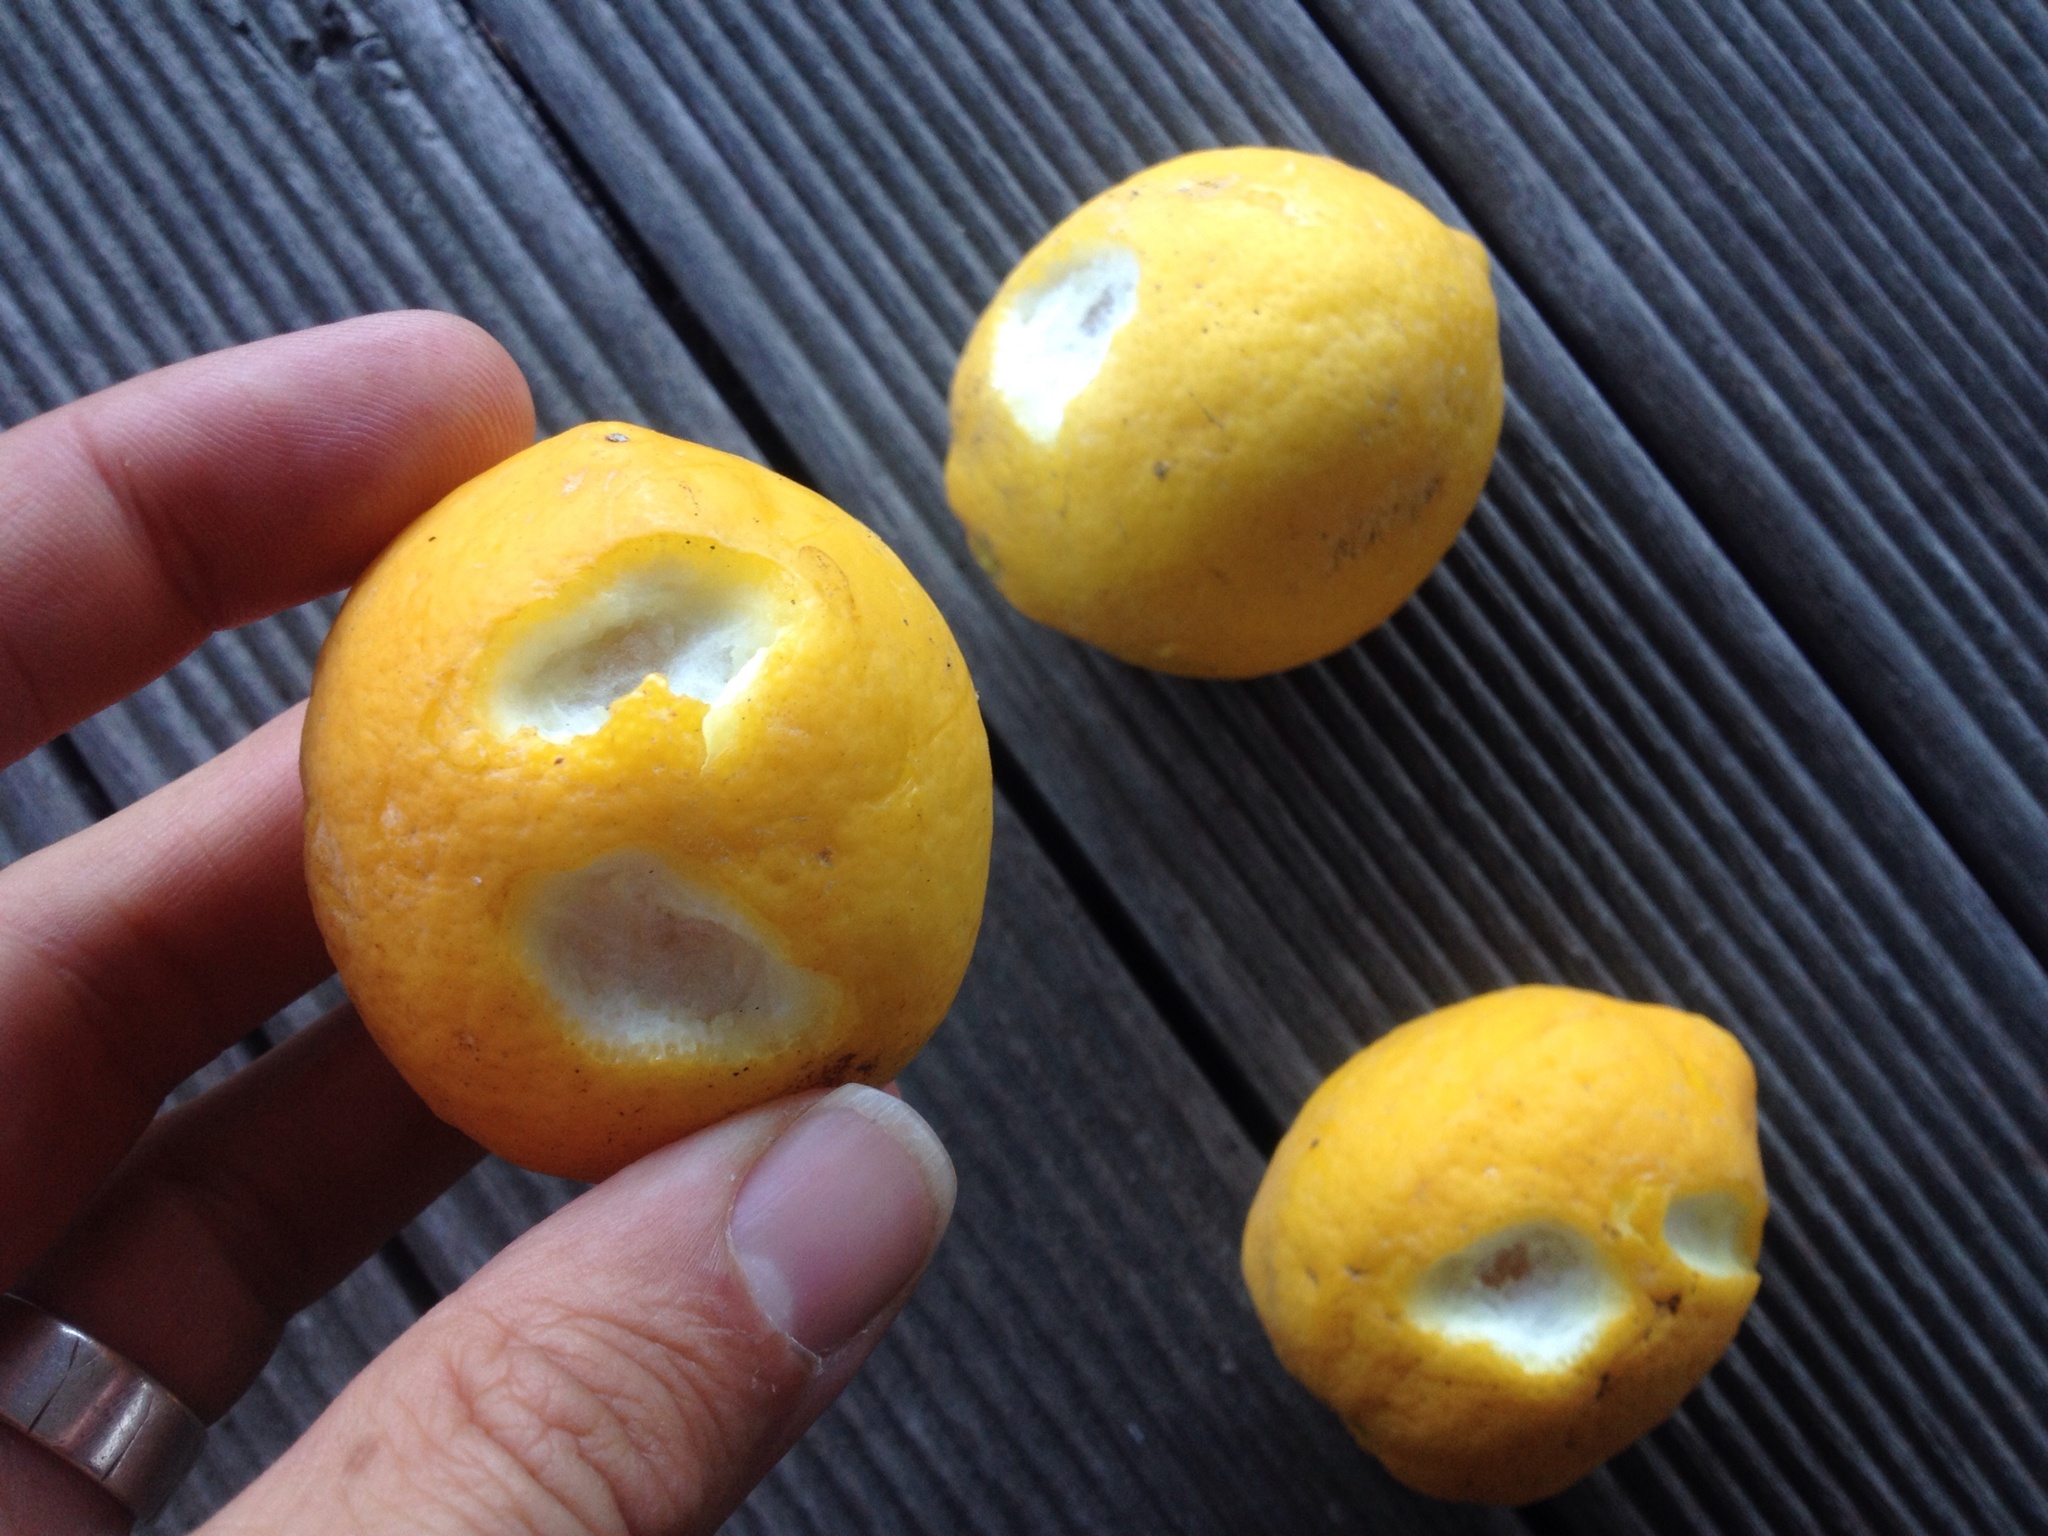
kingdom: Animalia
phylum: Chordata
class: Mammalia
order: Diprotodontia
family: Phalangeridae
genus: Trichosurus
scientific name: Trichosurus vulpecula
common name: Common brushtail
